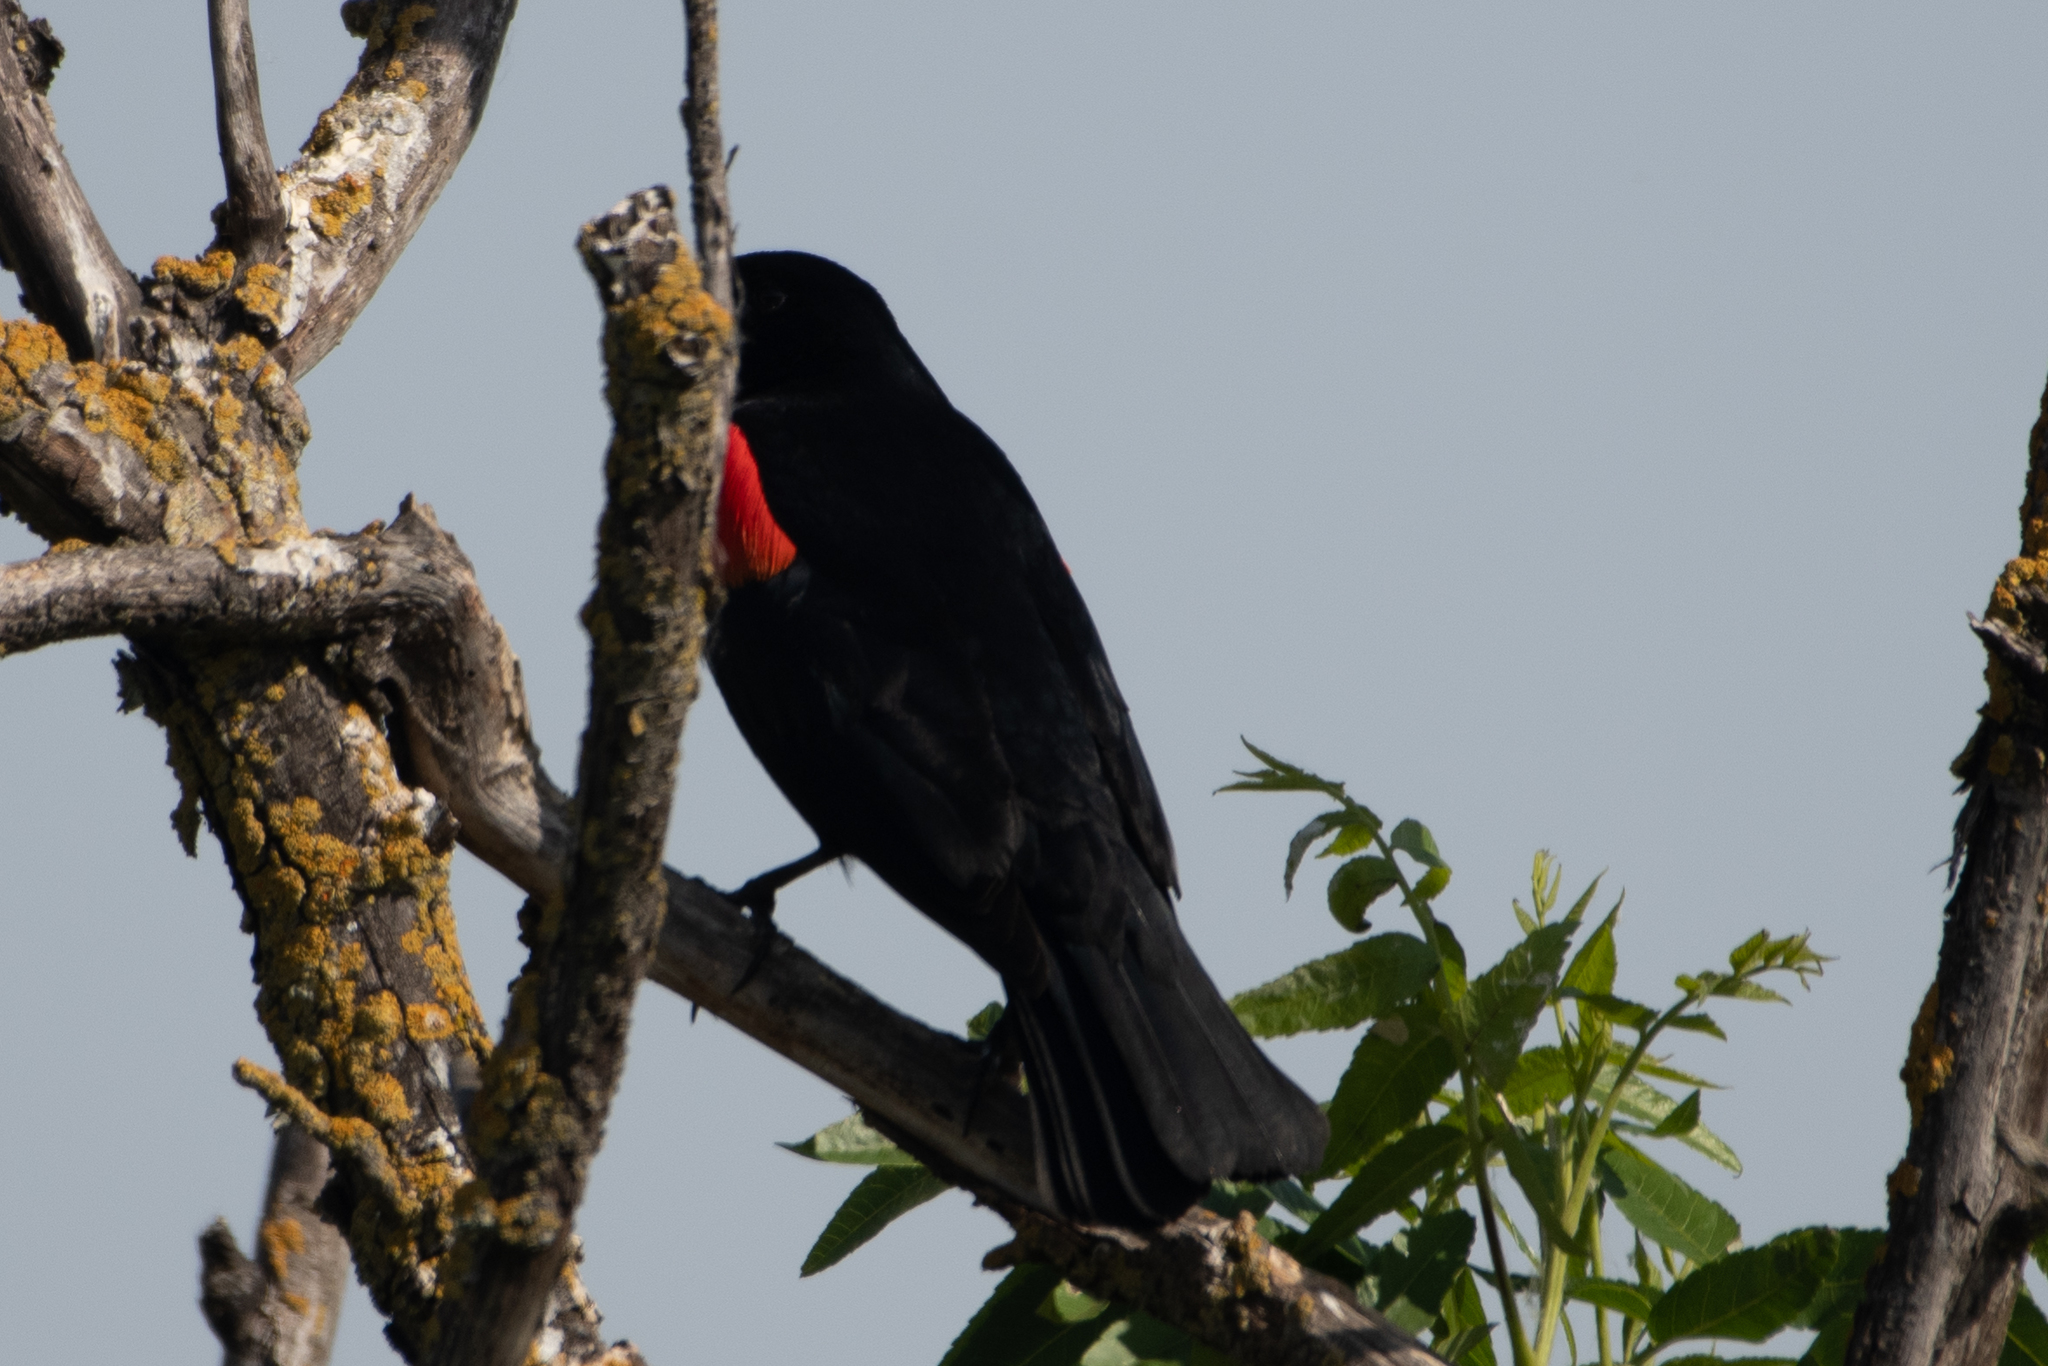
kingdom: Animalia
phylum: Chordata
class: Aves
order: Passeriformes
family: Icteridae
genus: Agelaius
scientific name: Agelaius phoeniceus
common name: Red-winged blackbird
